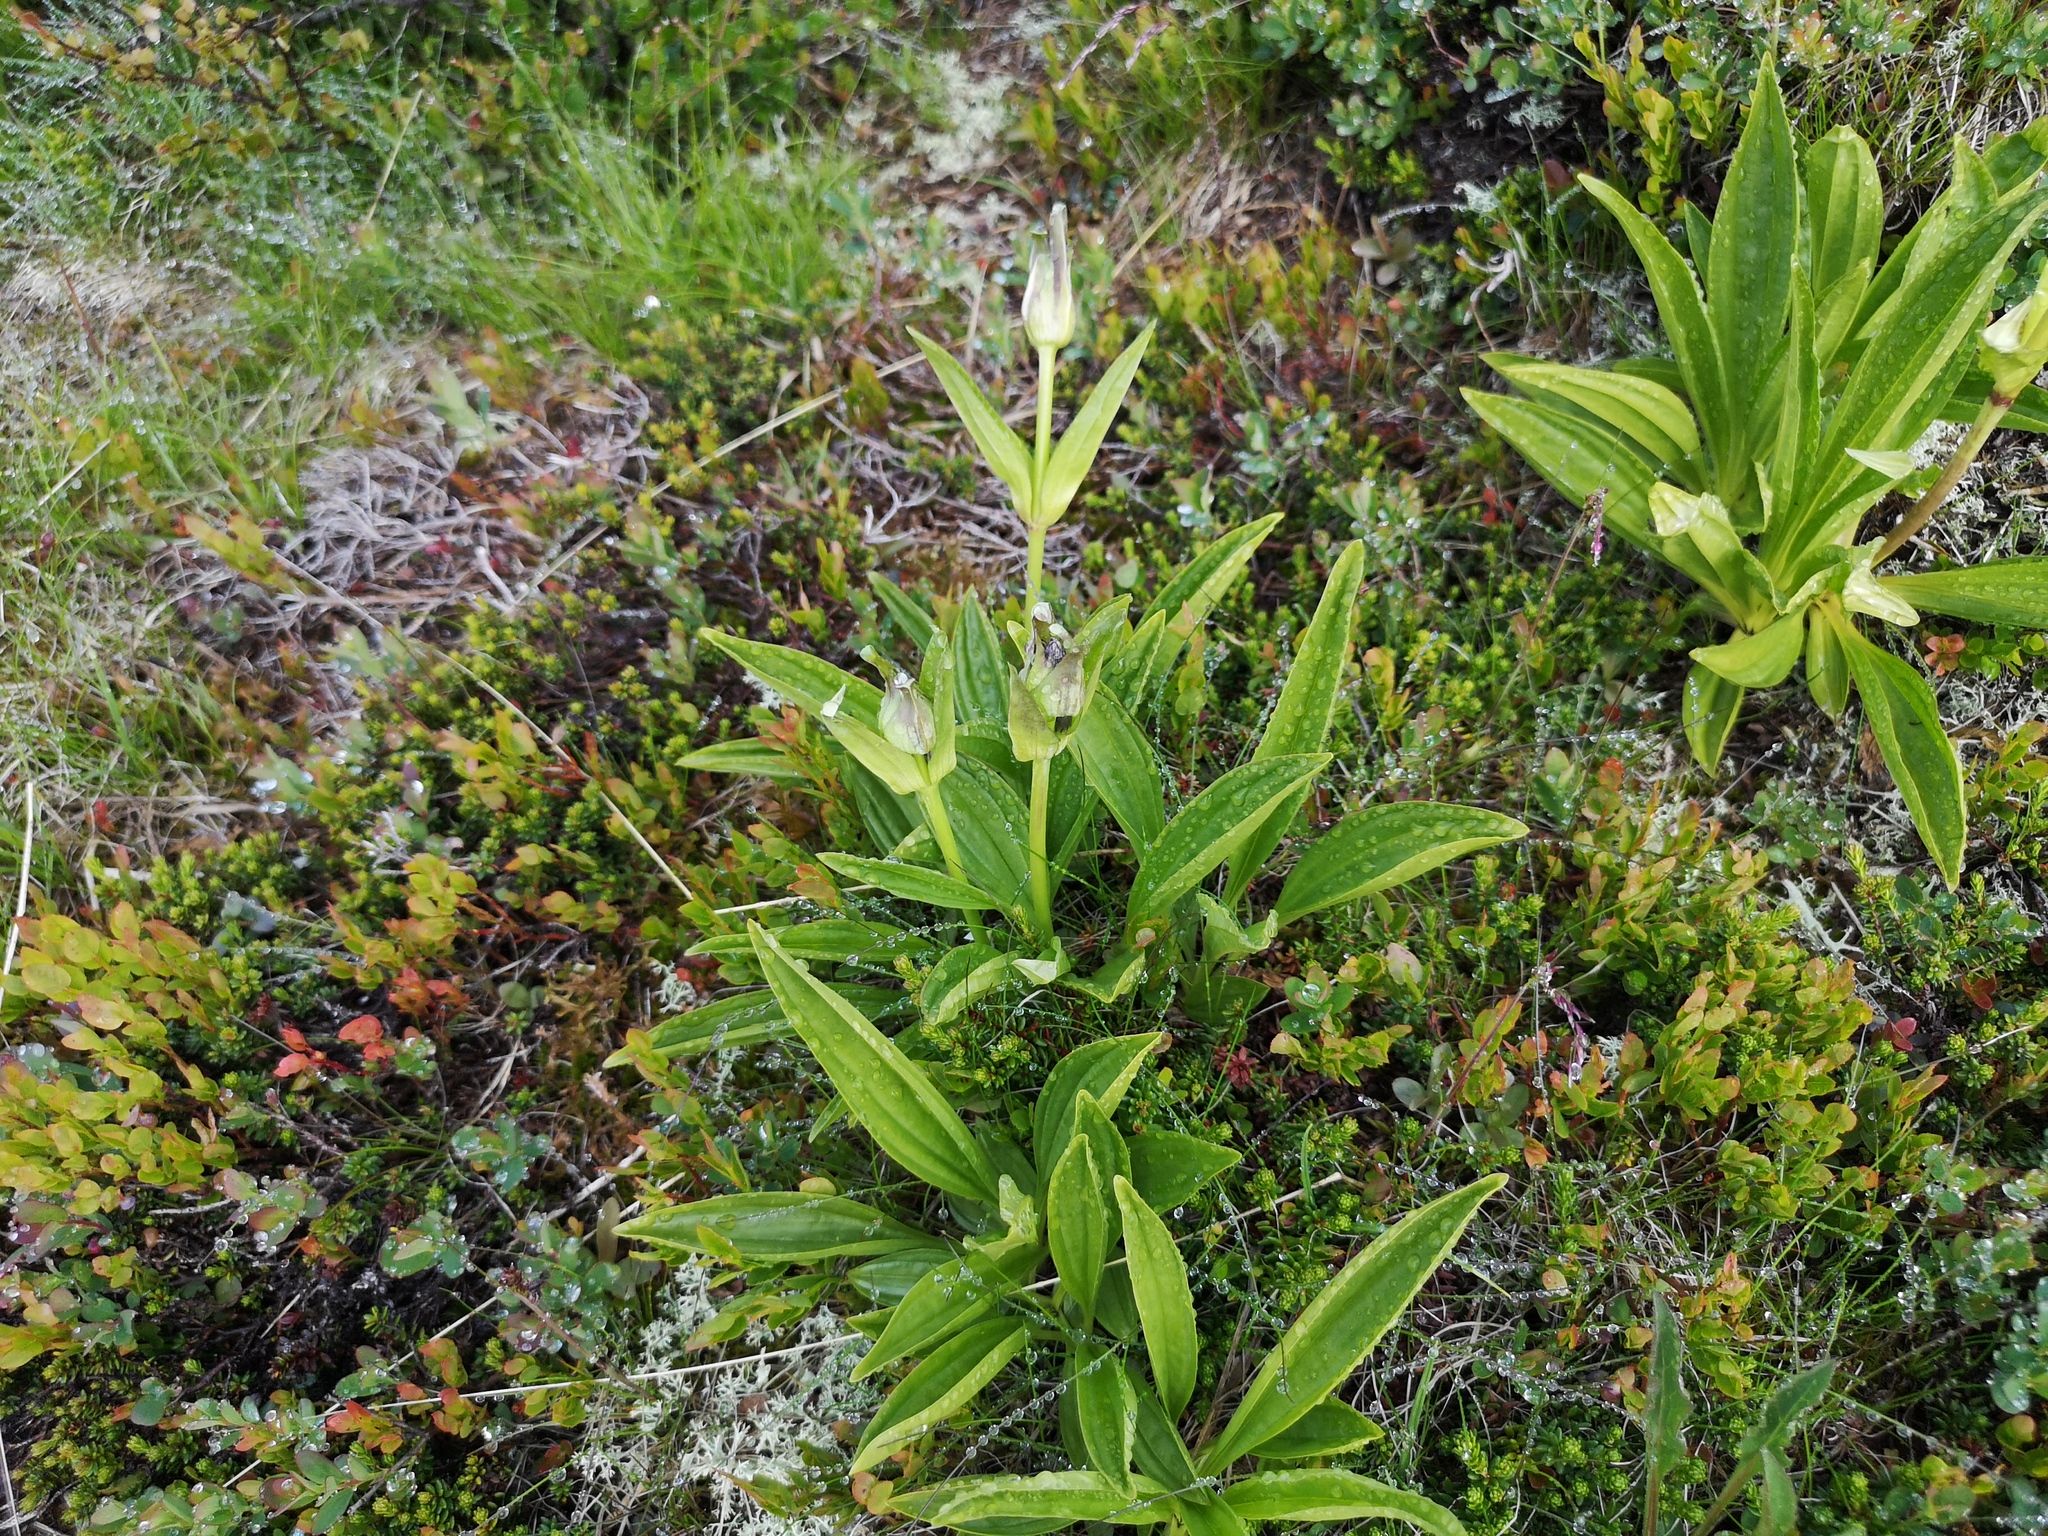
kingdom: Plantae
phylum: Tracheophyta
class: Magnoliopsida
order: Gentianales
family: Gentianaceae
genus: Gentiana
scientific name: Gentiana purpurea
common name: Purple gentian
